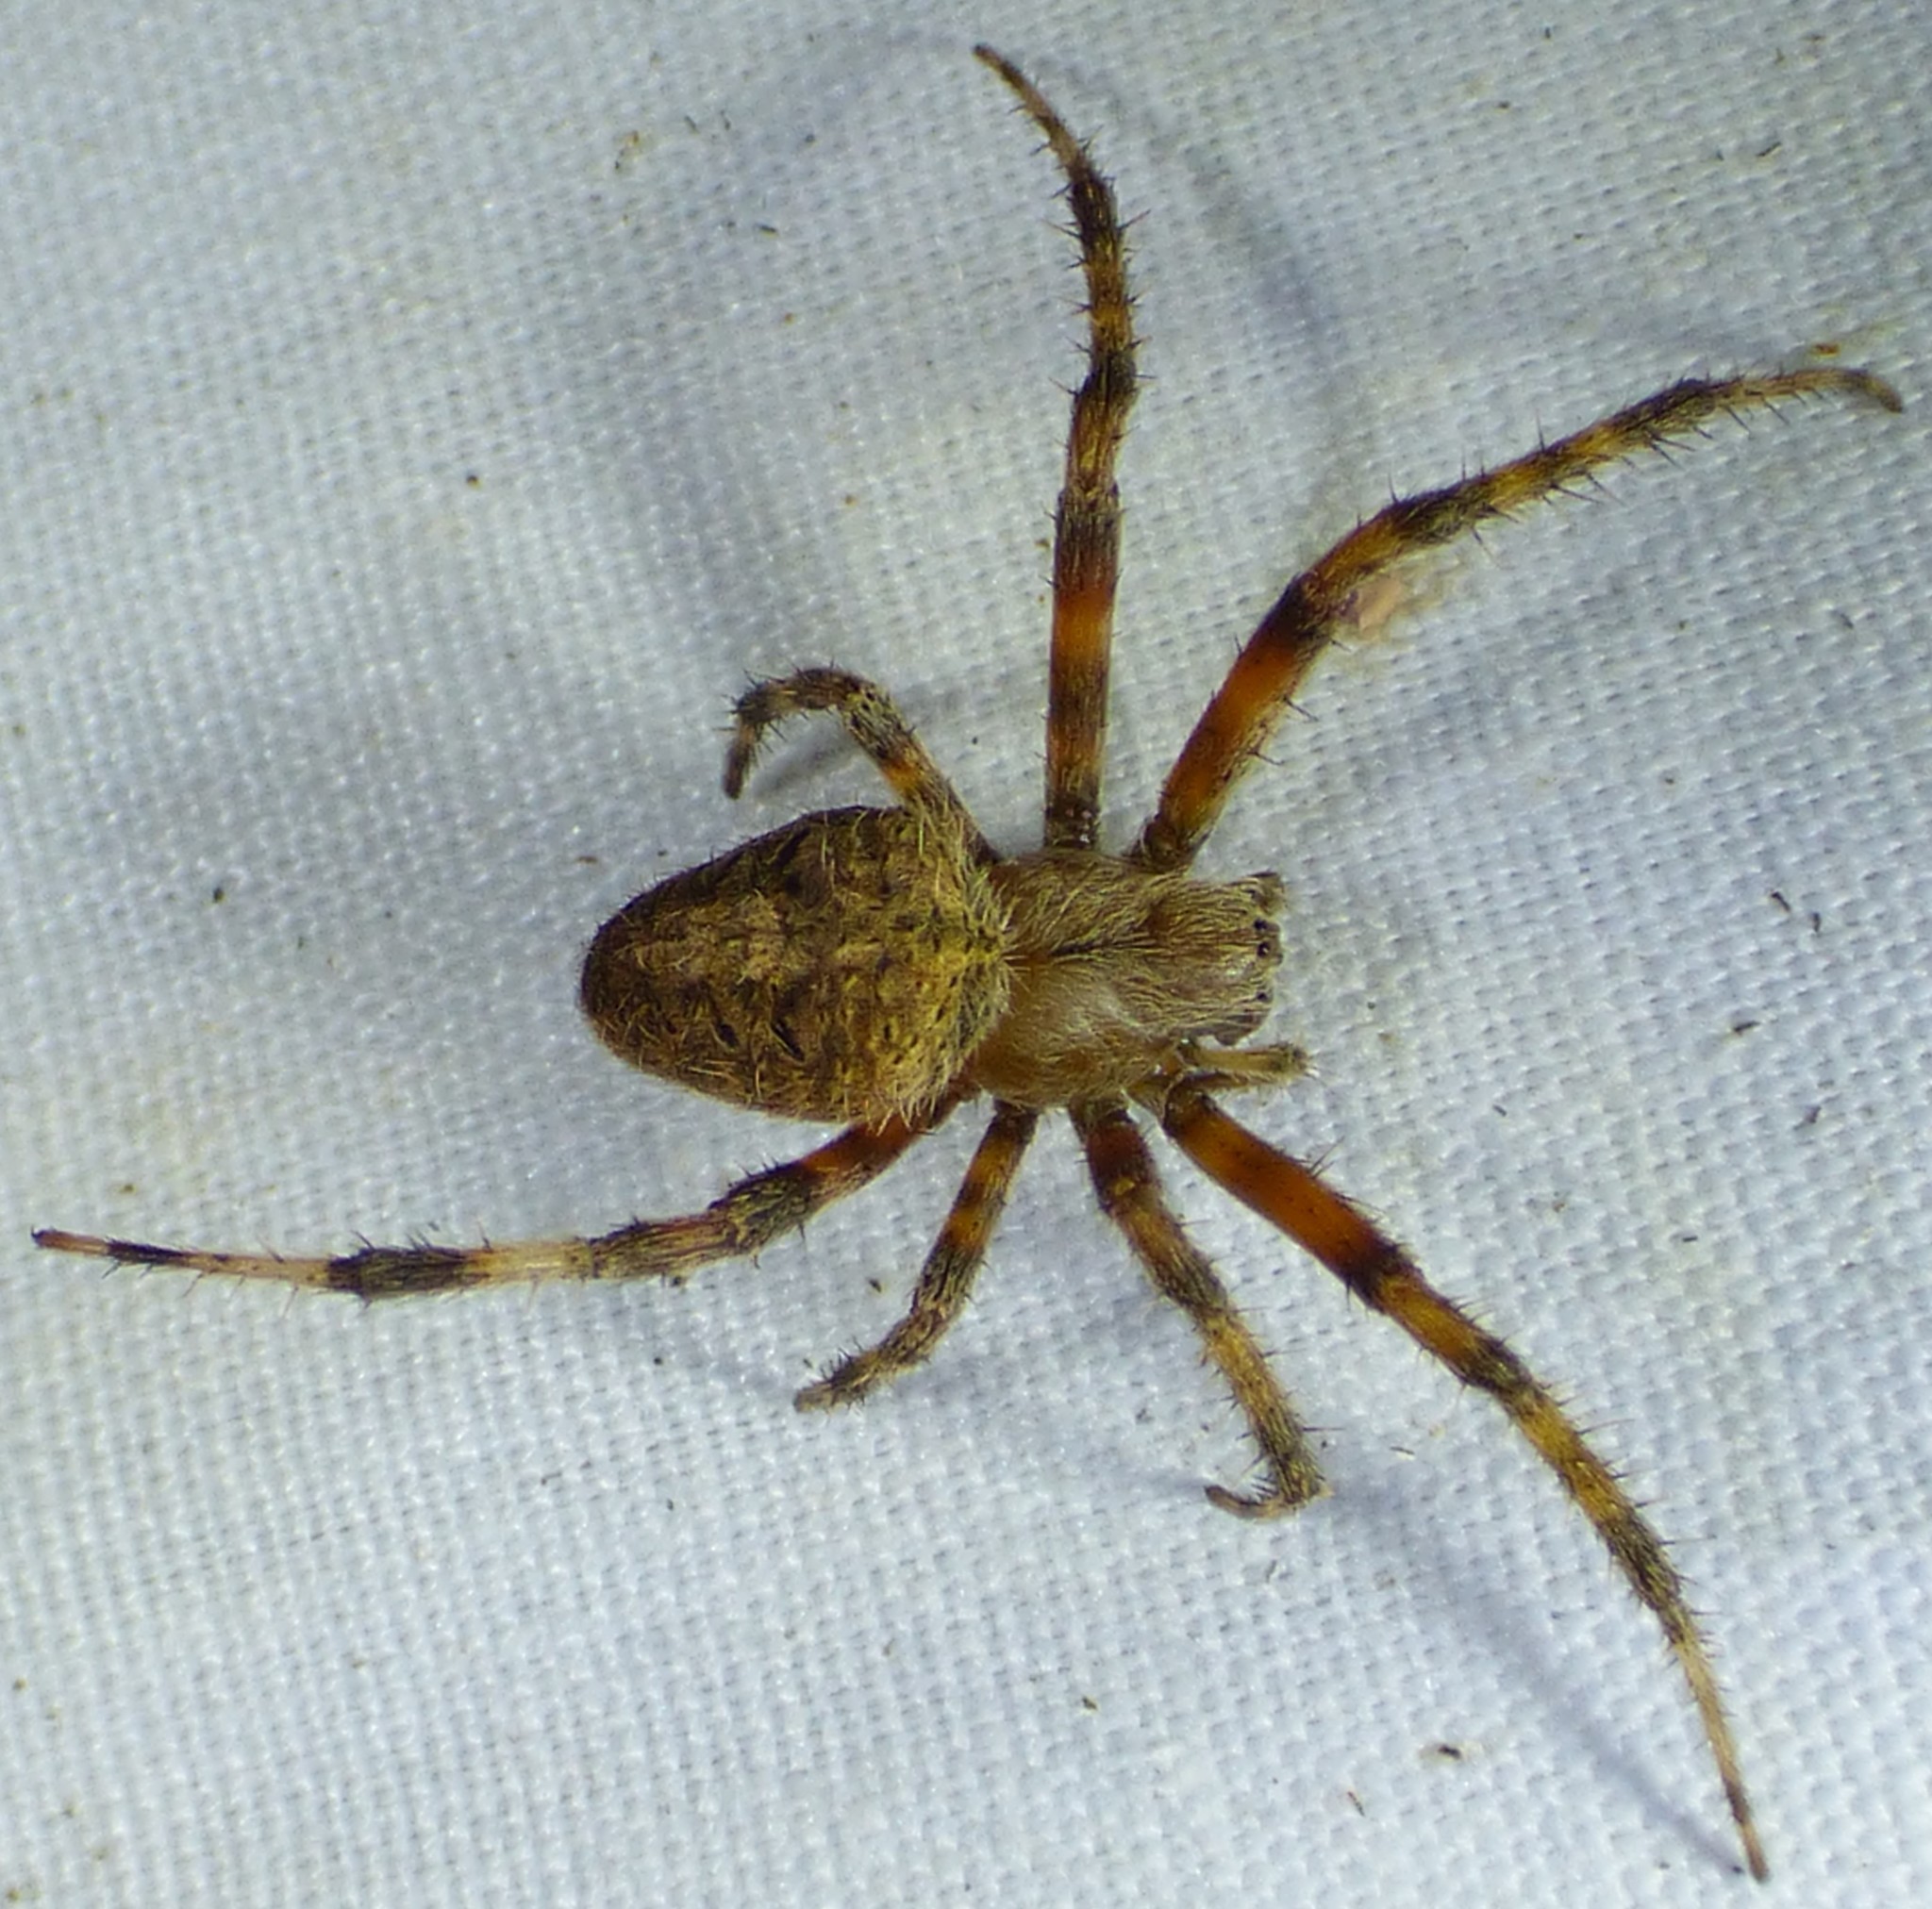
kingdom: Animalia
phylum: Arthropoda
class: Arachnida
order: Araneae
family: Araneidae
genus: Neoscona
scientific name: Neoscona crucifera
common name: Spotted orbweaver
